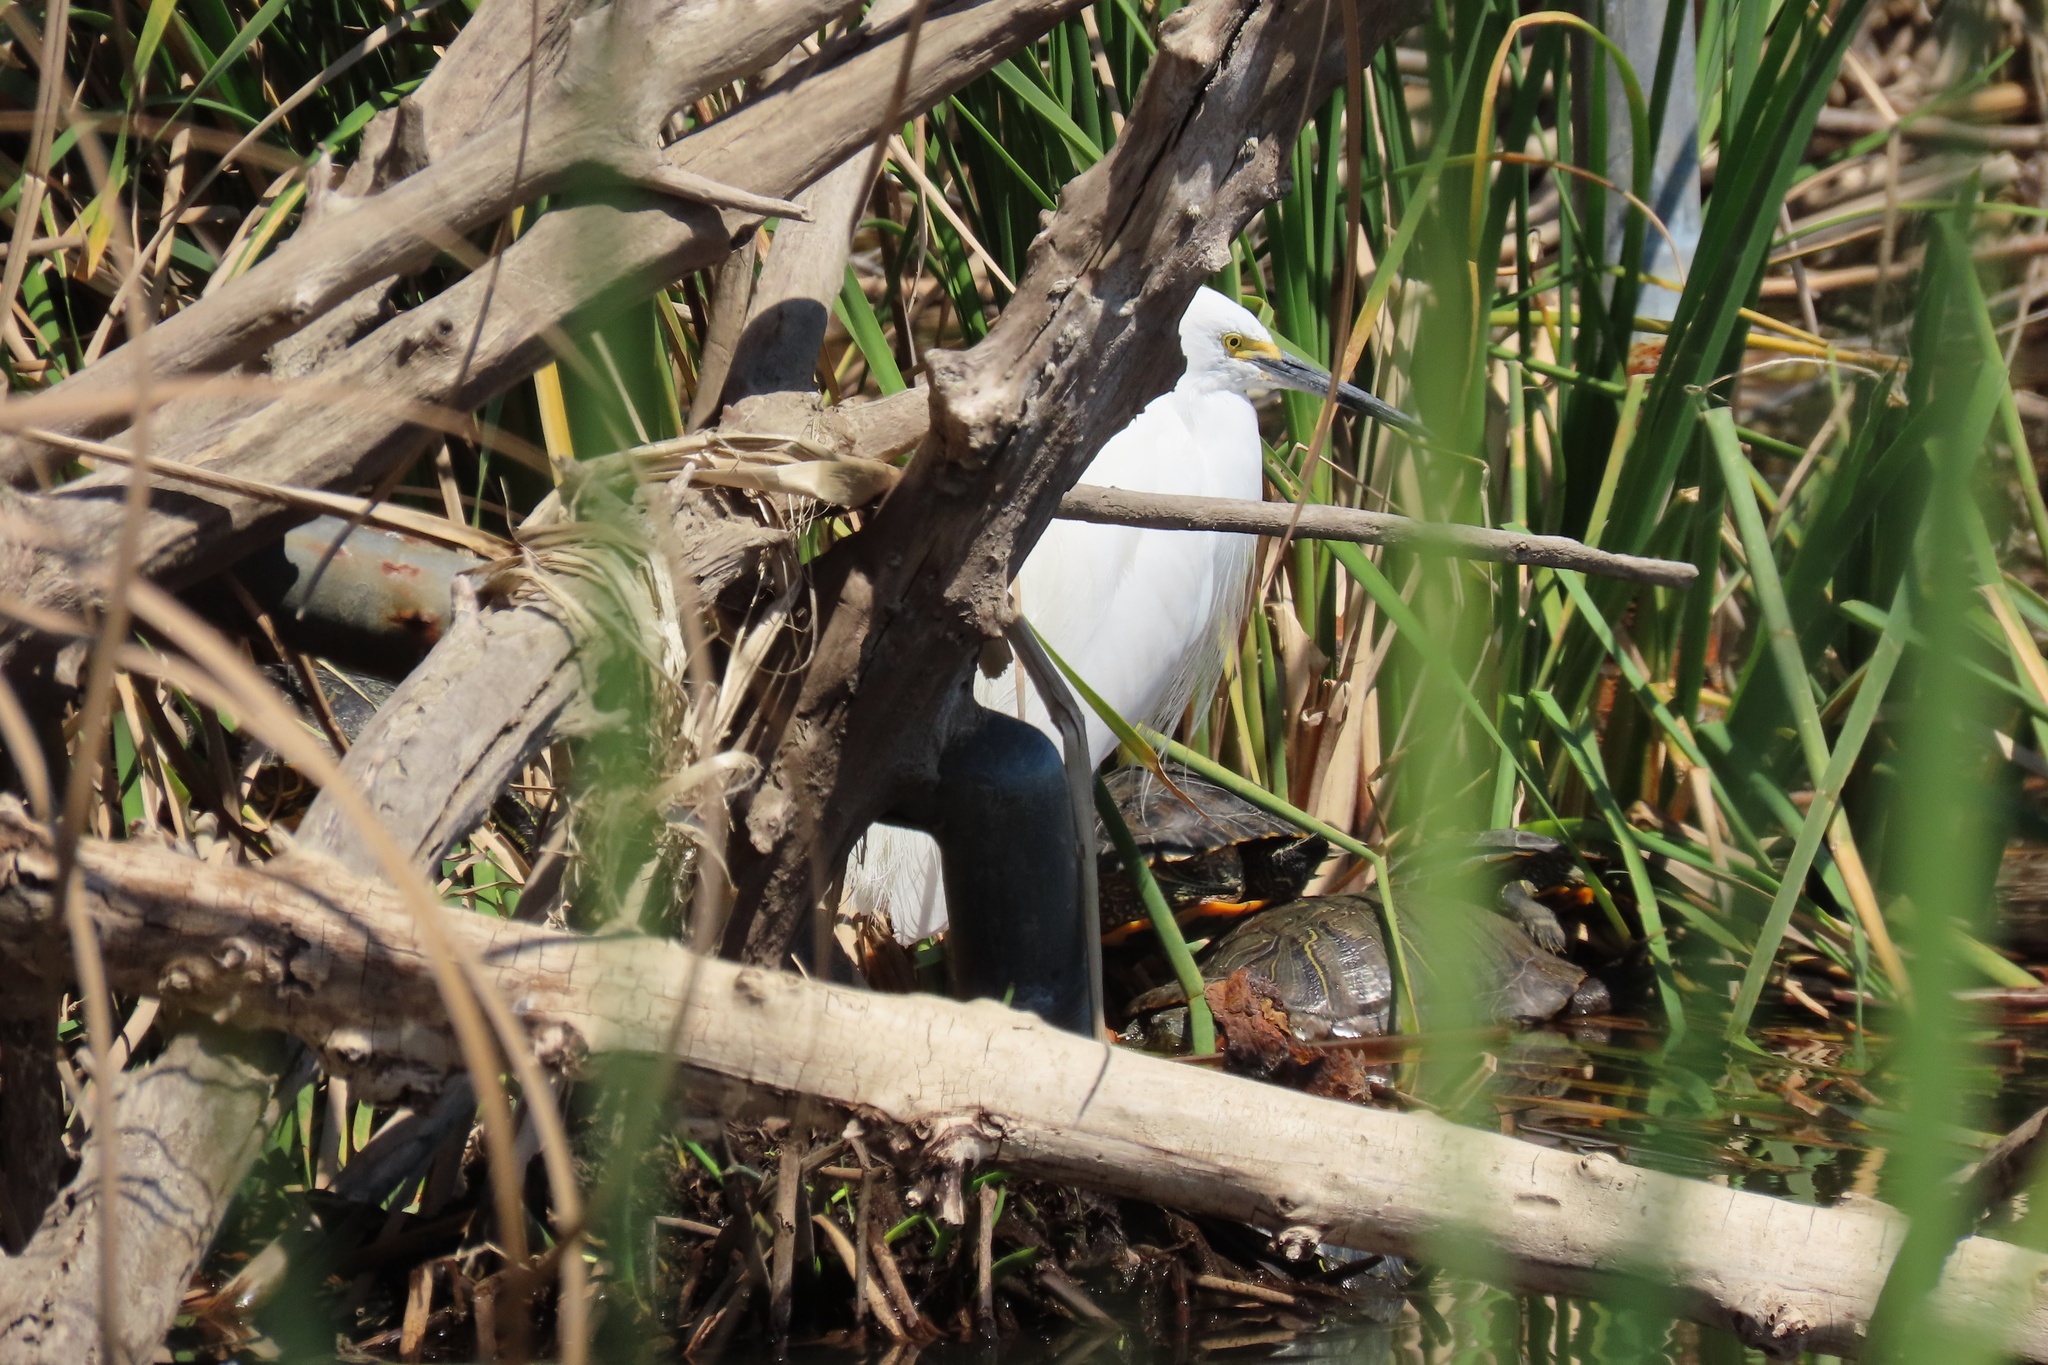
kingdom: Animalia
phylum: Chordata
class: Aves
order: Pelecaniformes
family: Ardeidae
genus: Egretta
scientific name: Egretta thula
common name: Snowy egret
